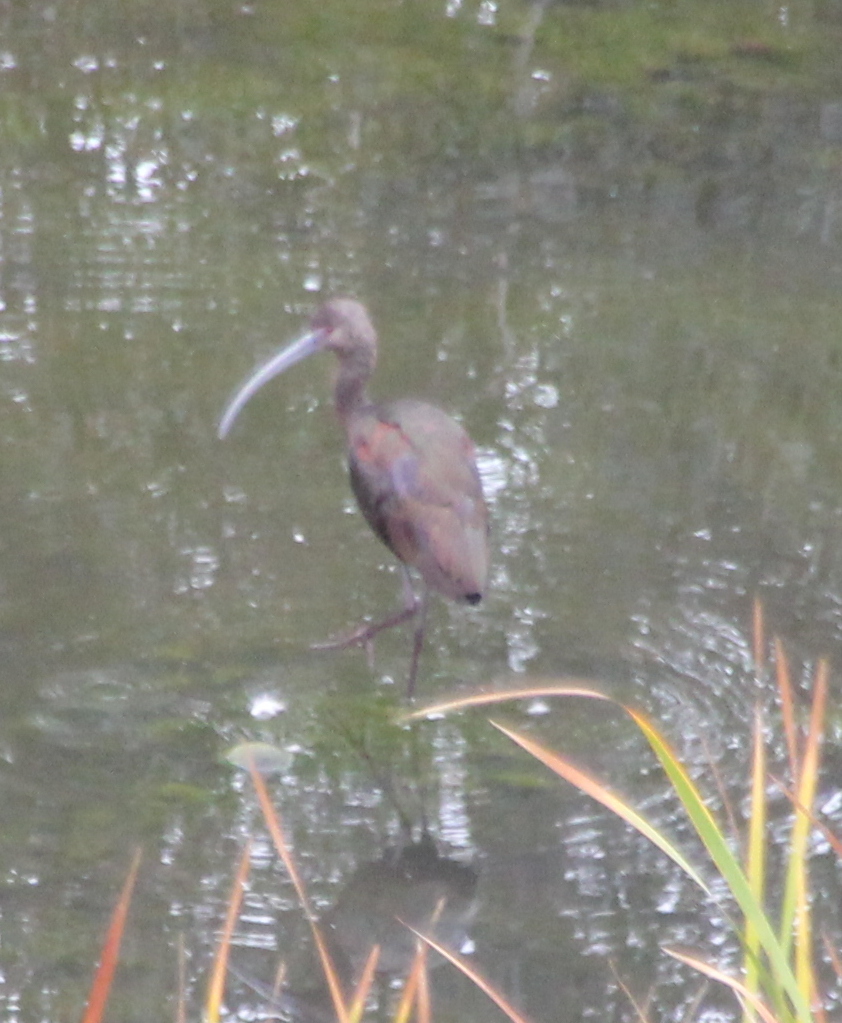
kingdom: Animalia
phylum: Chordata
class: Aves
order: Pelecaniformes
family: Threskiornithidae
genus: Plegadis
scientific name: Plegadis chihi
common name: White-faced ibis
